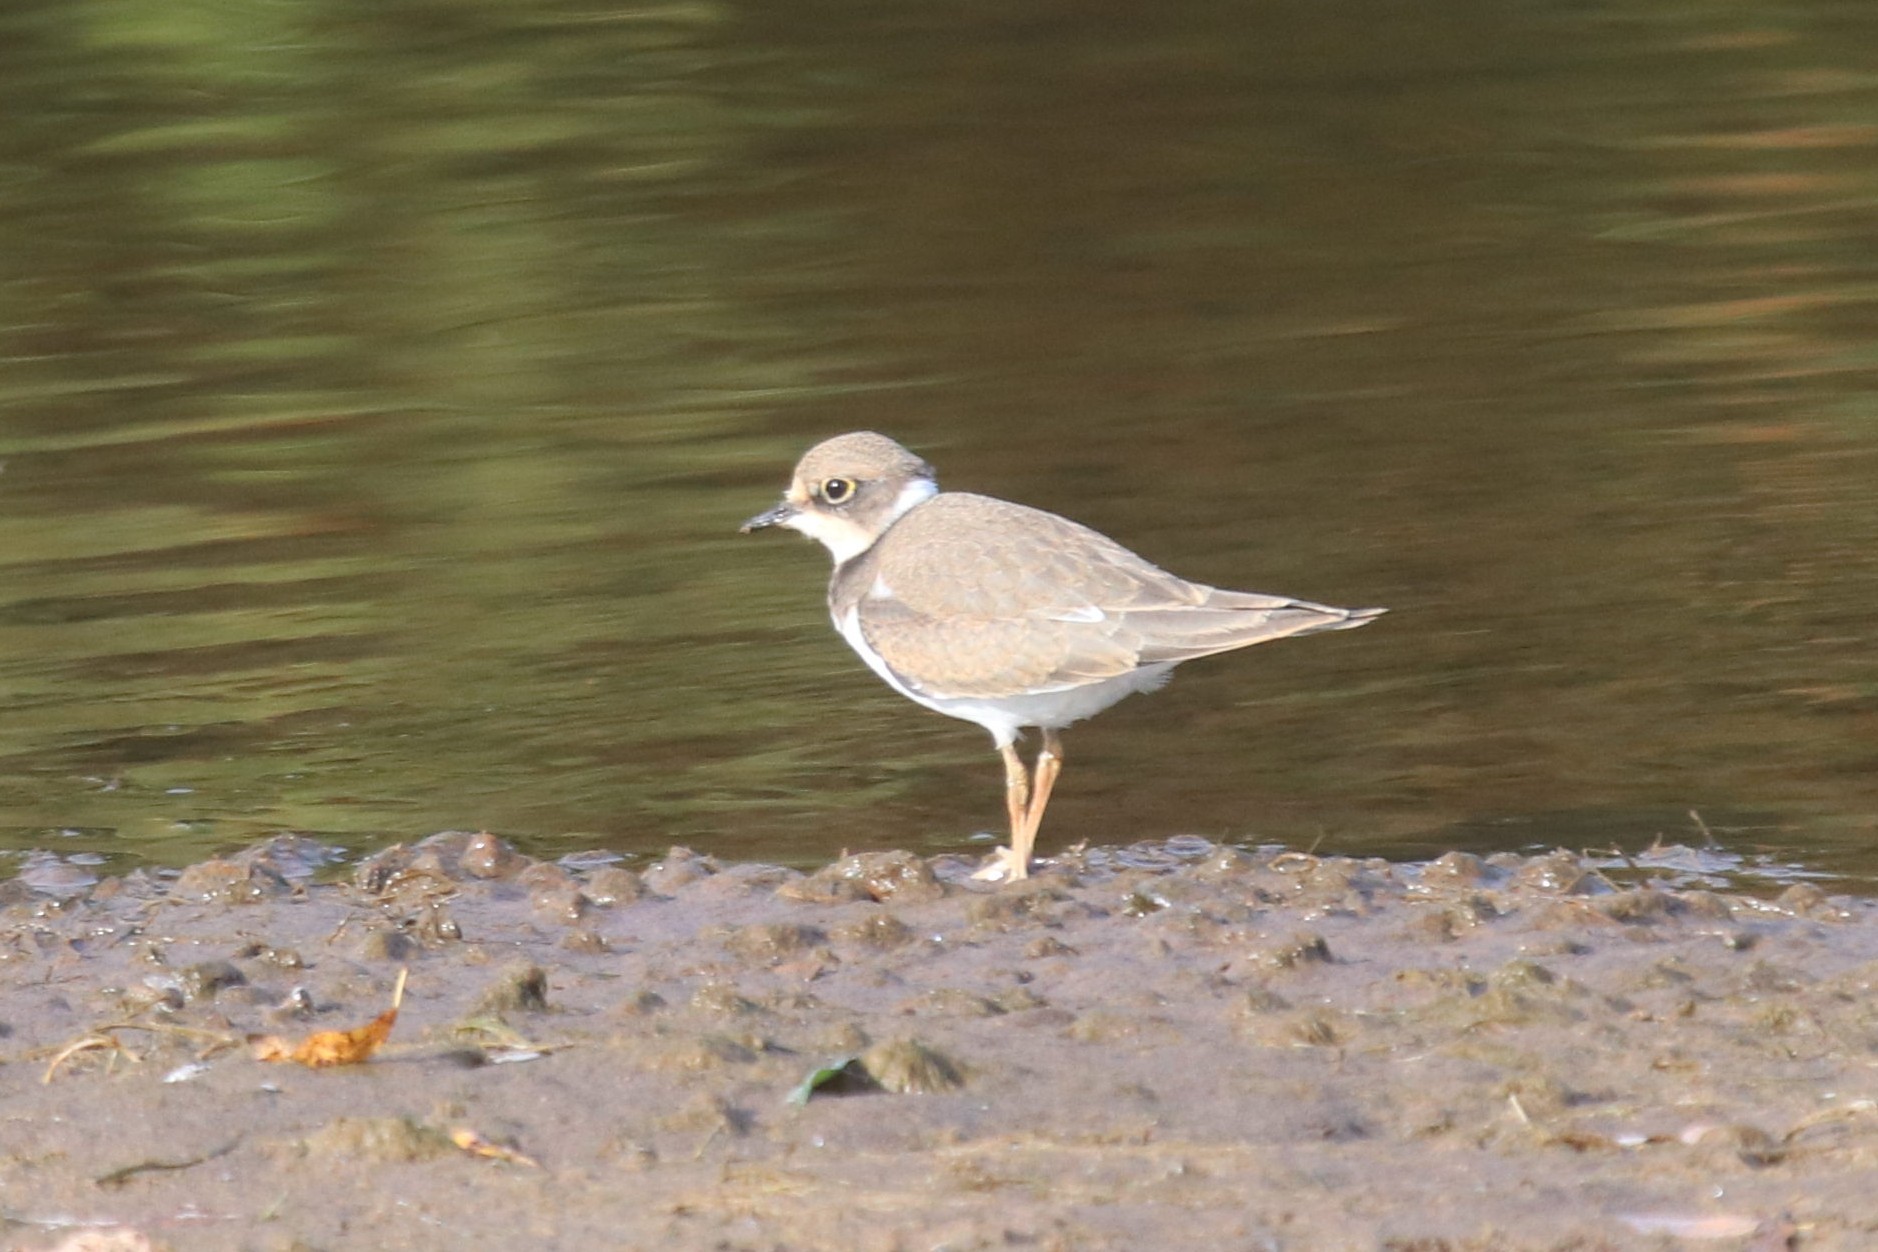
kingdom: Animalia
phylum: Chordata
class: Aves
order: Charadriiformes
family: Charadriidae
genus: Charadrius
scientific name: Charadrius dubius
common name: Little ringed plover
